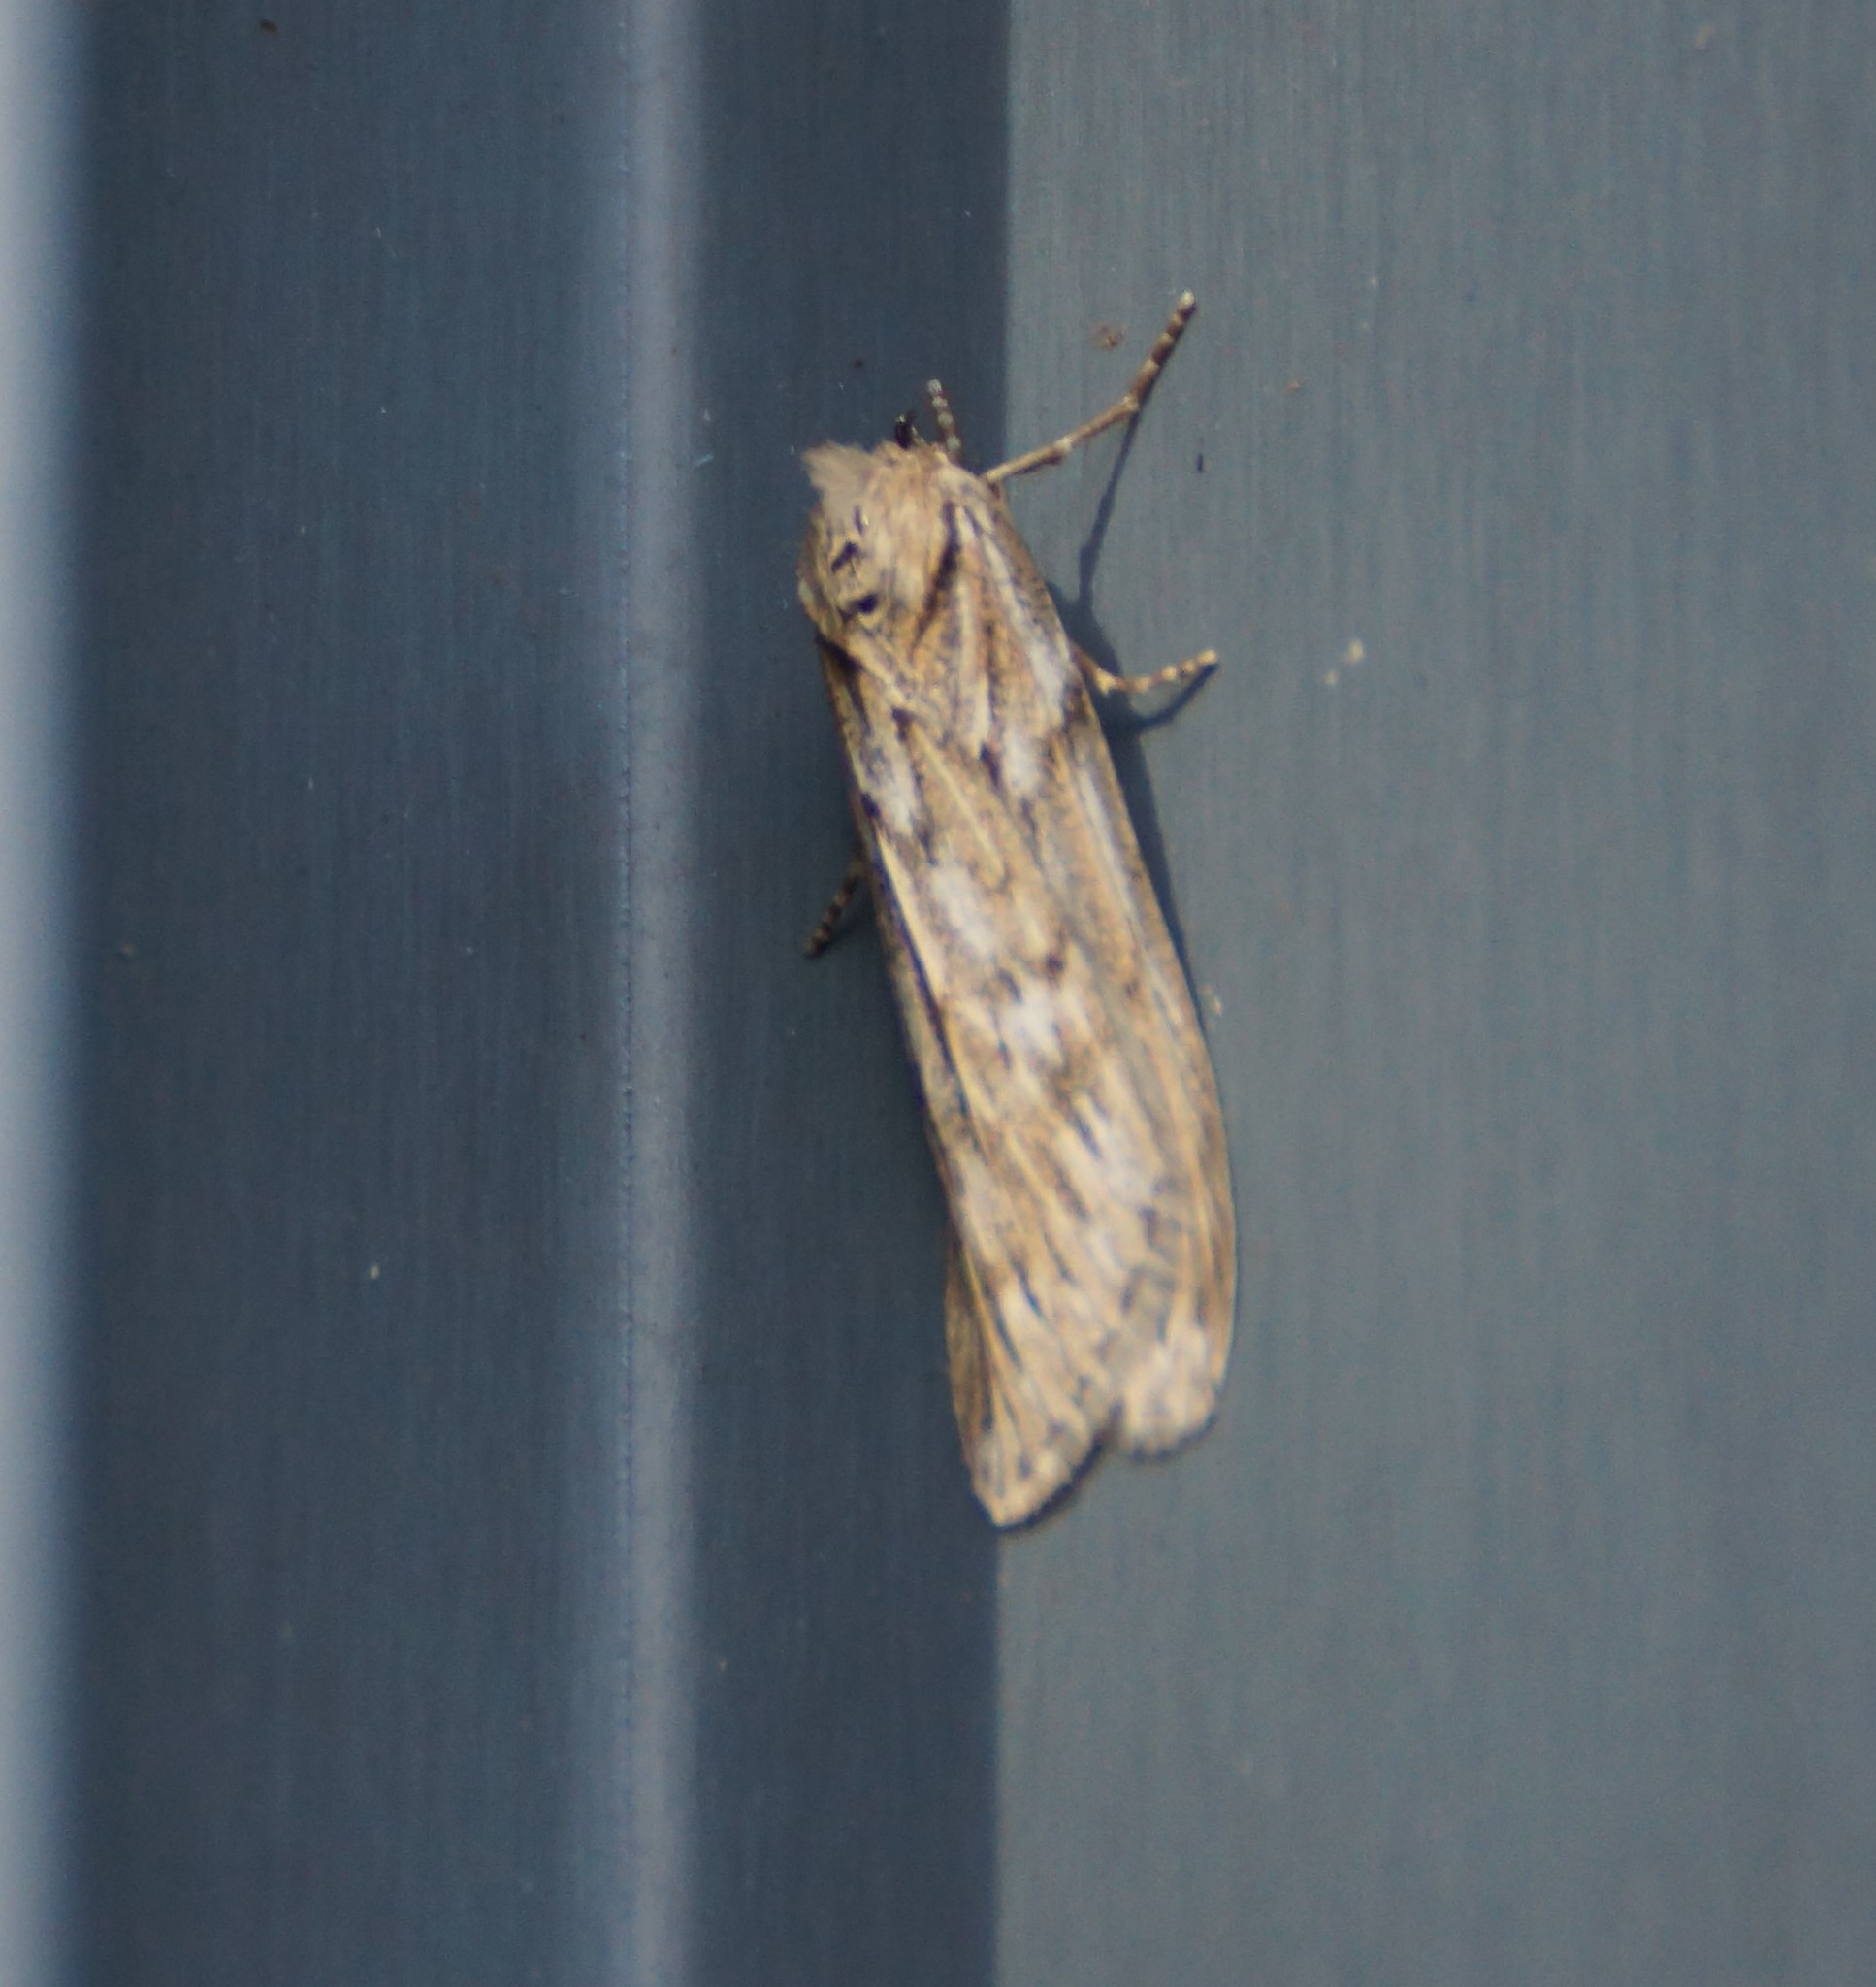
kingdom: Animalia
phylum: Arthropoda
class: Insecta
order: Lepidoptera
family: Geometridae
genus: Ciampa
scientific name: Ciampa arietaria
